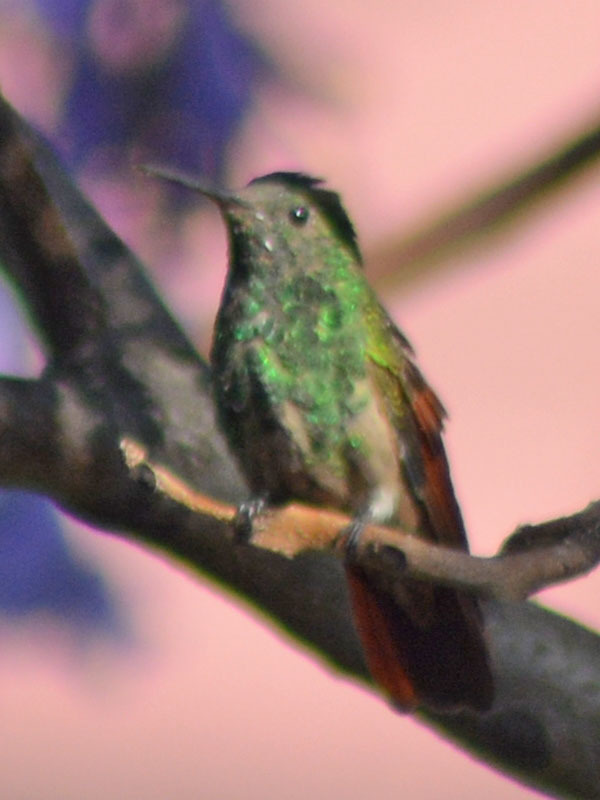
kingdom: Animalia
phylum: Chordata
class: Aves
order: Apodiformes
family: Trochilidae
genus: Saucerottia
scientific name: Saucerottia beryllina
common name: Berylline hummingbird
